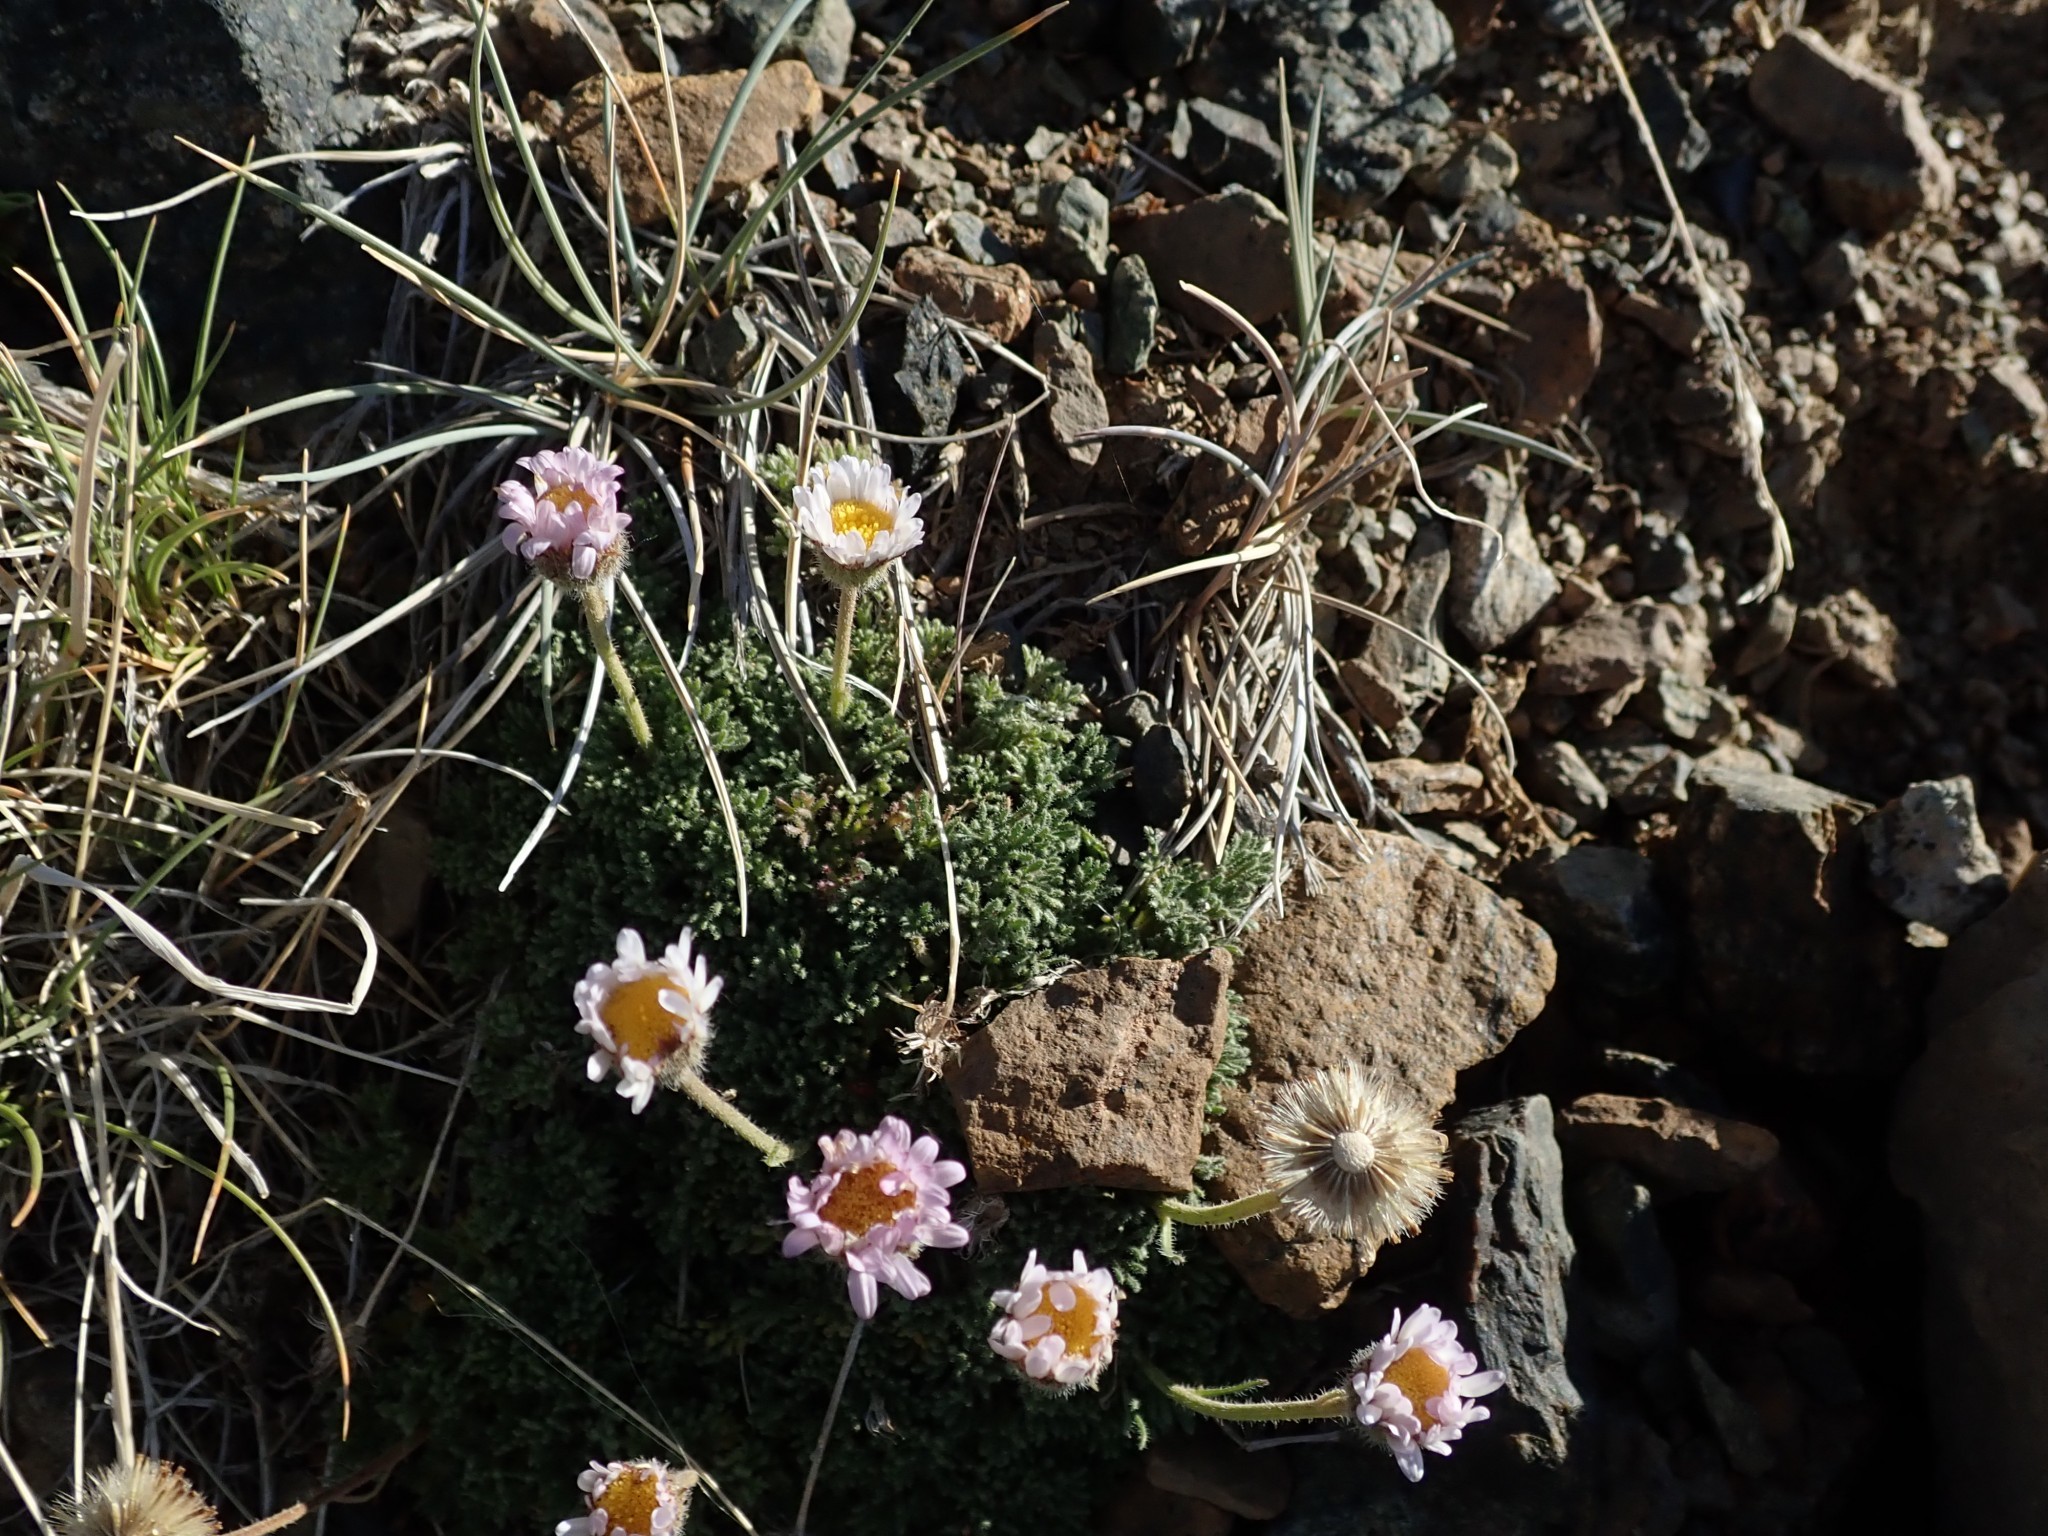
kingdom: Plantae
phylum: Tracheophyta
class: Magnoliopsida
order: Asterales
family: Asteraceae
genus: Erigeron
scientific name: Erigeron compositus
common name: Dwarf mountain fleabane
